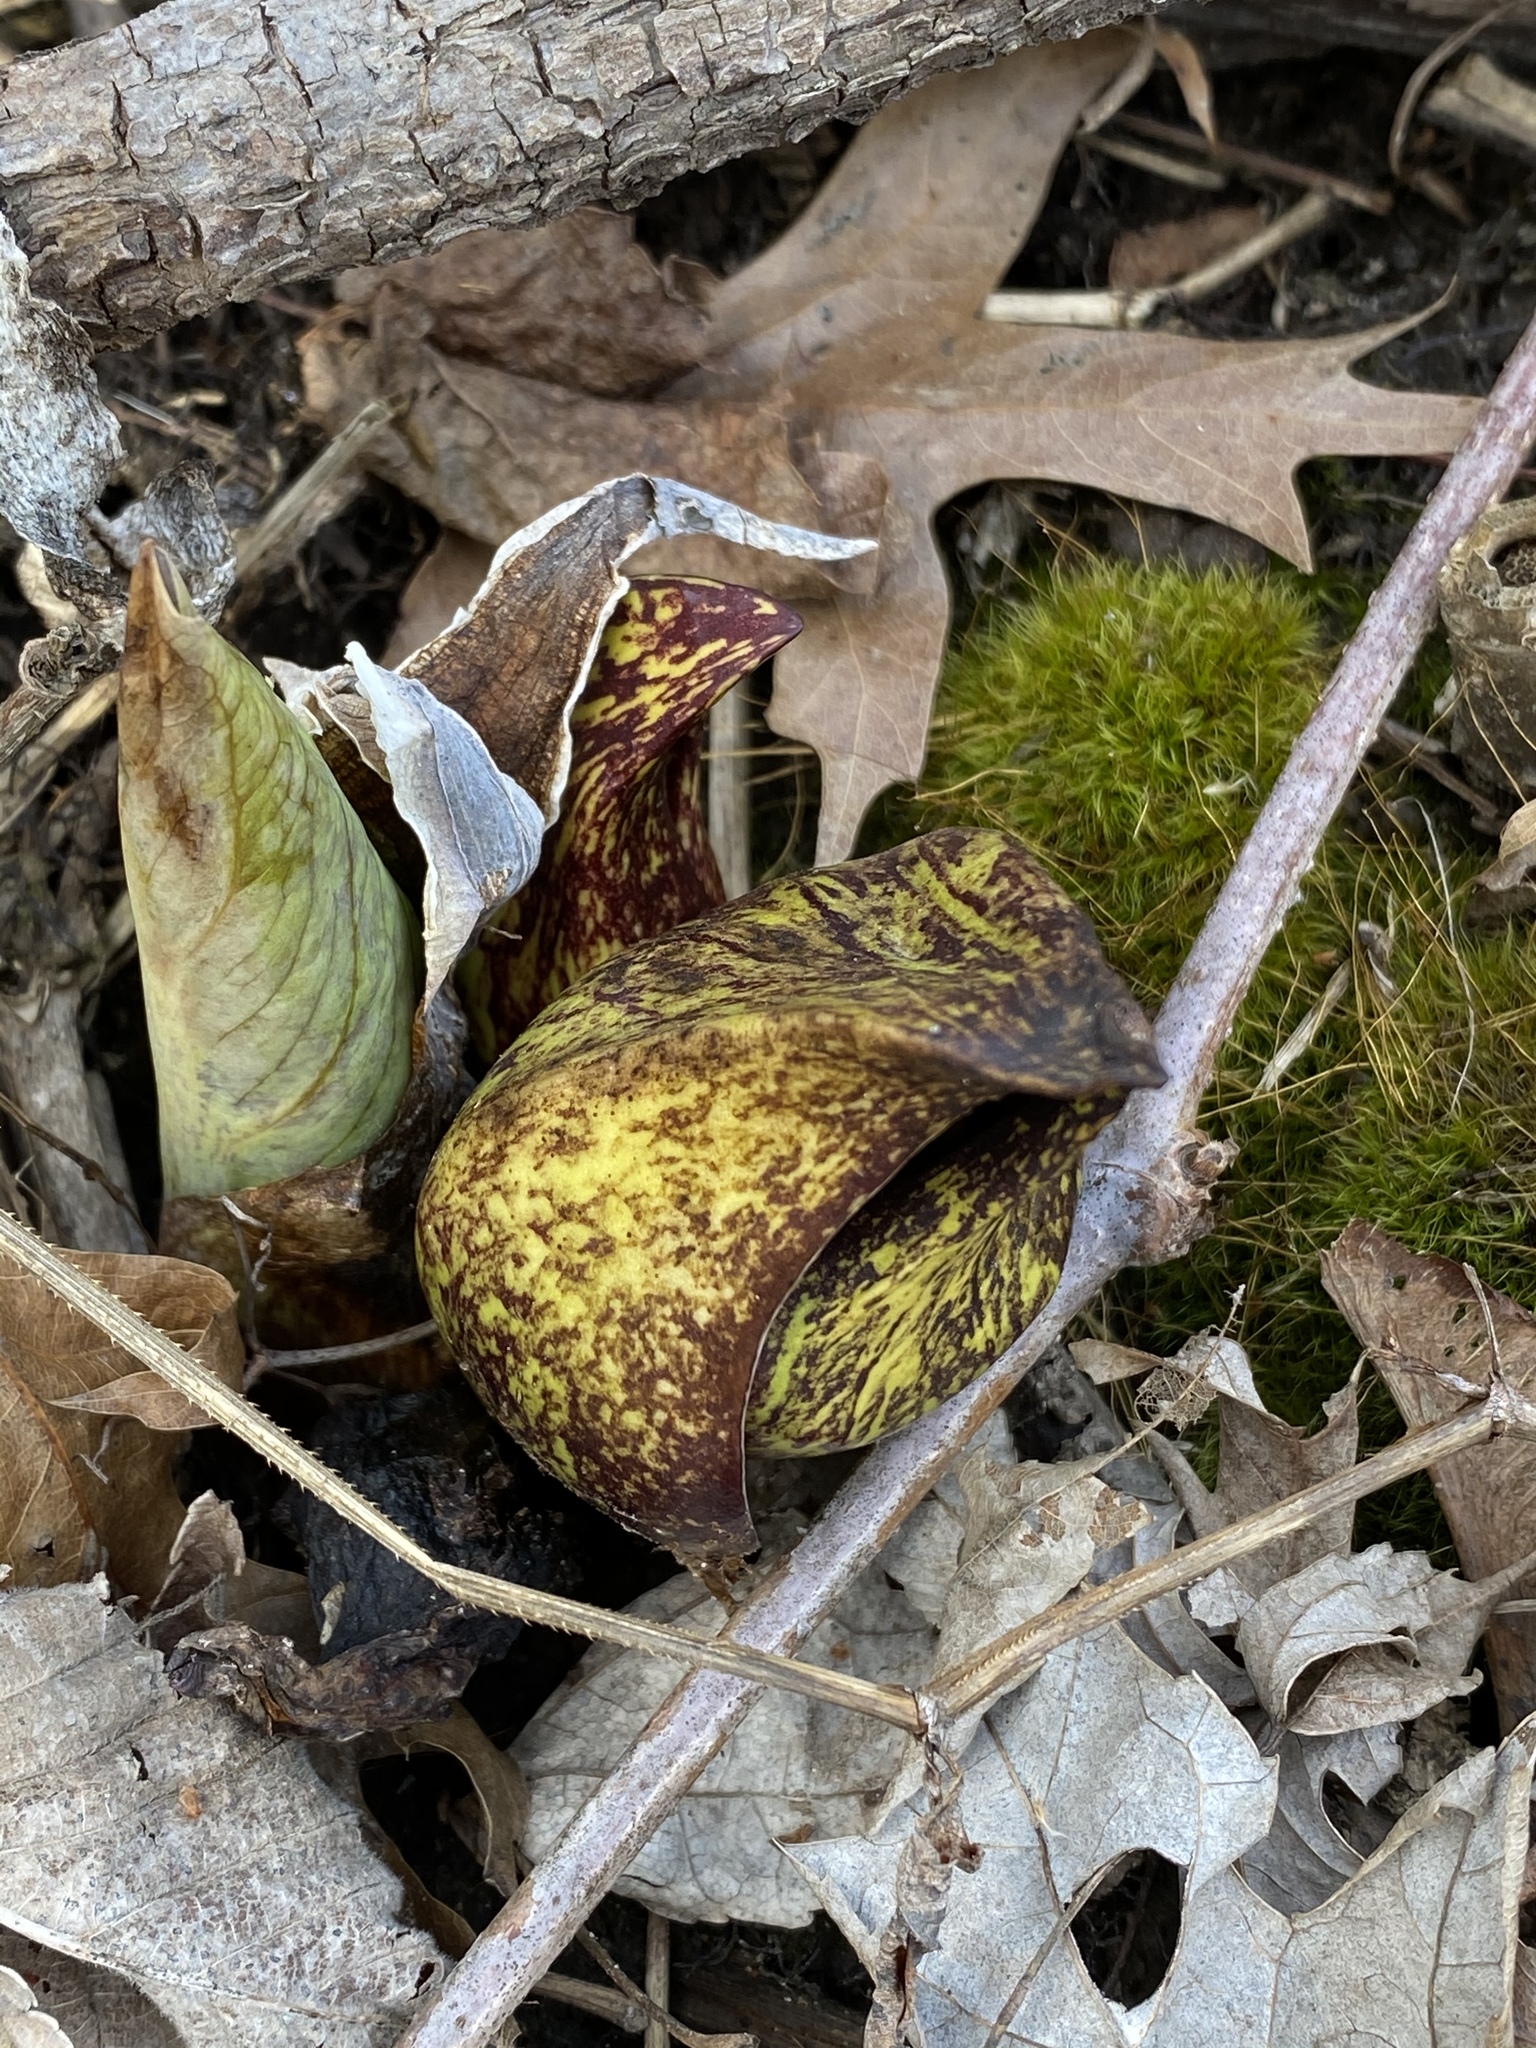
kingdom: Plantae
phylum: Tracheophyta
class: Liliopsida
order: Alismatales
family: Araceae
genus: Symplocarpus
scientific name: Symplocarpus foetidus
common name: Eastern skunk cabbage
